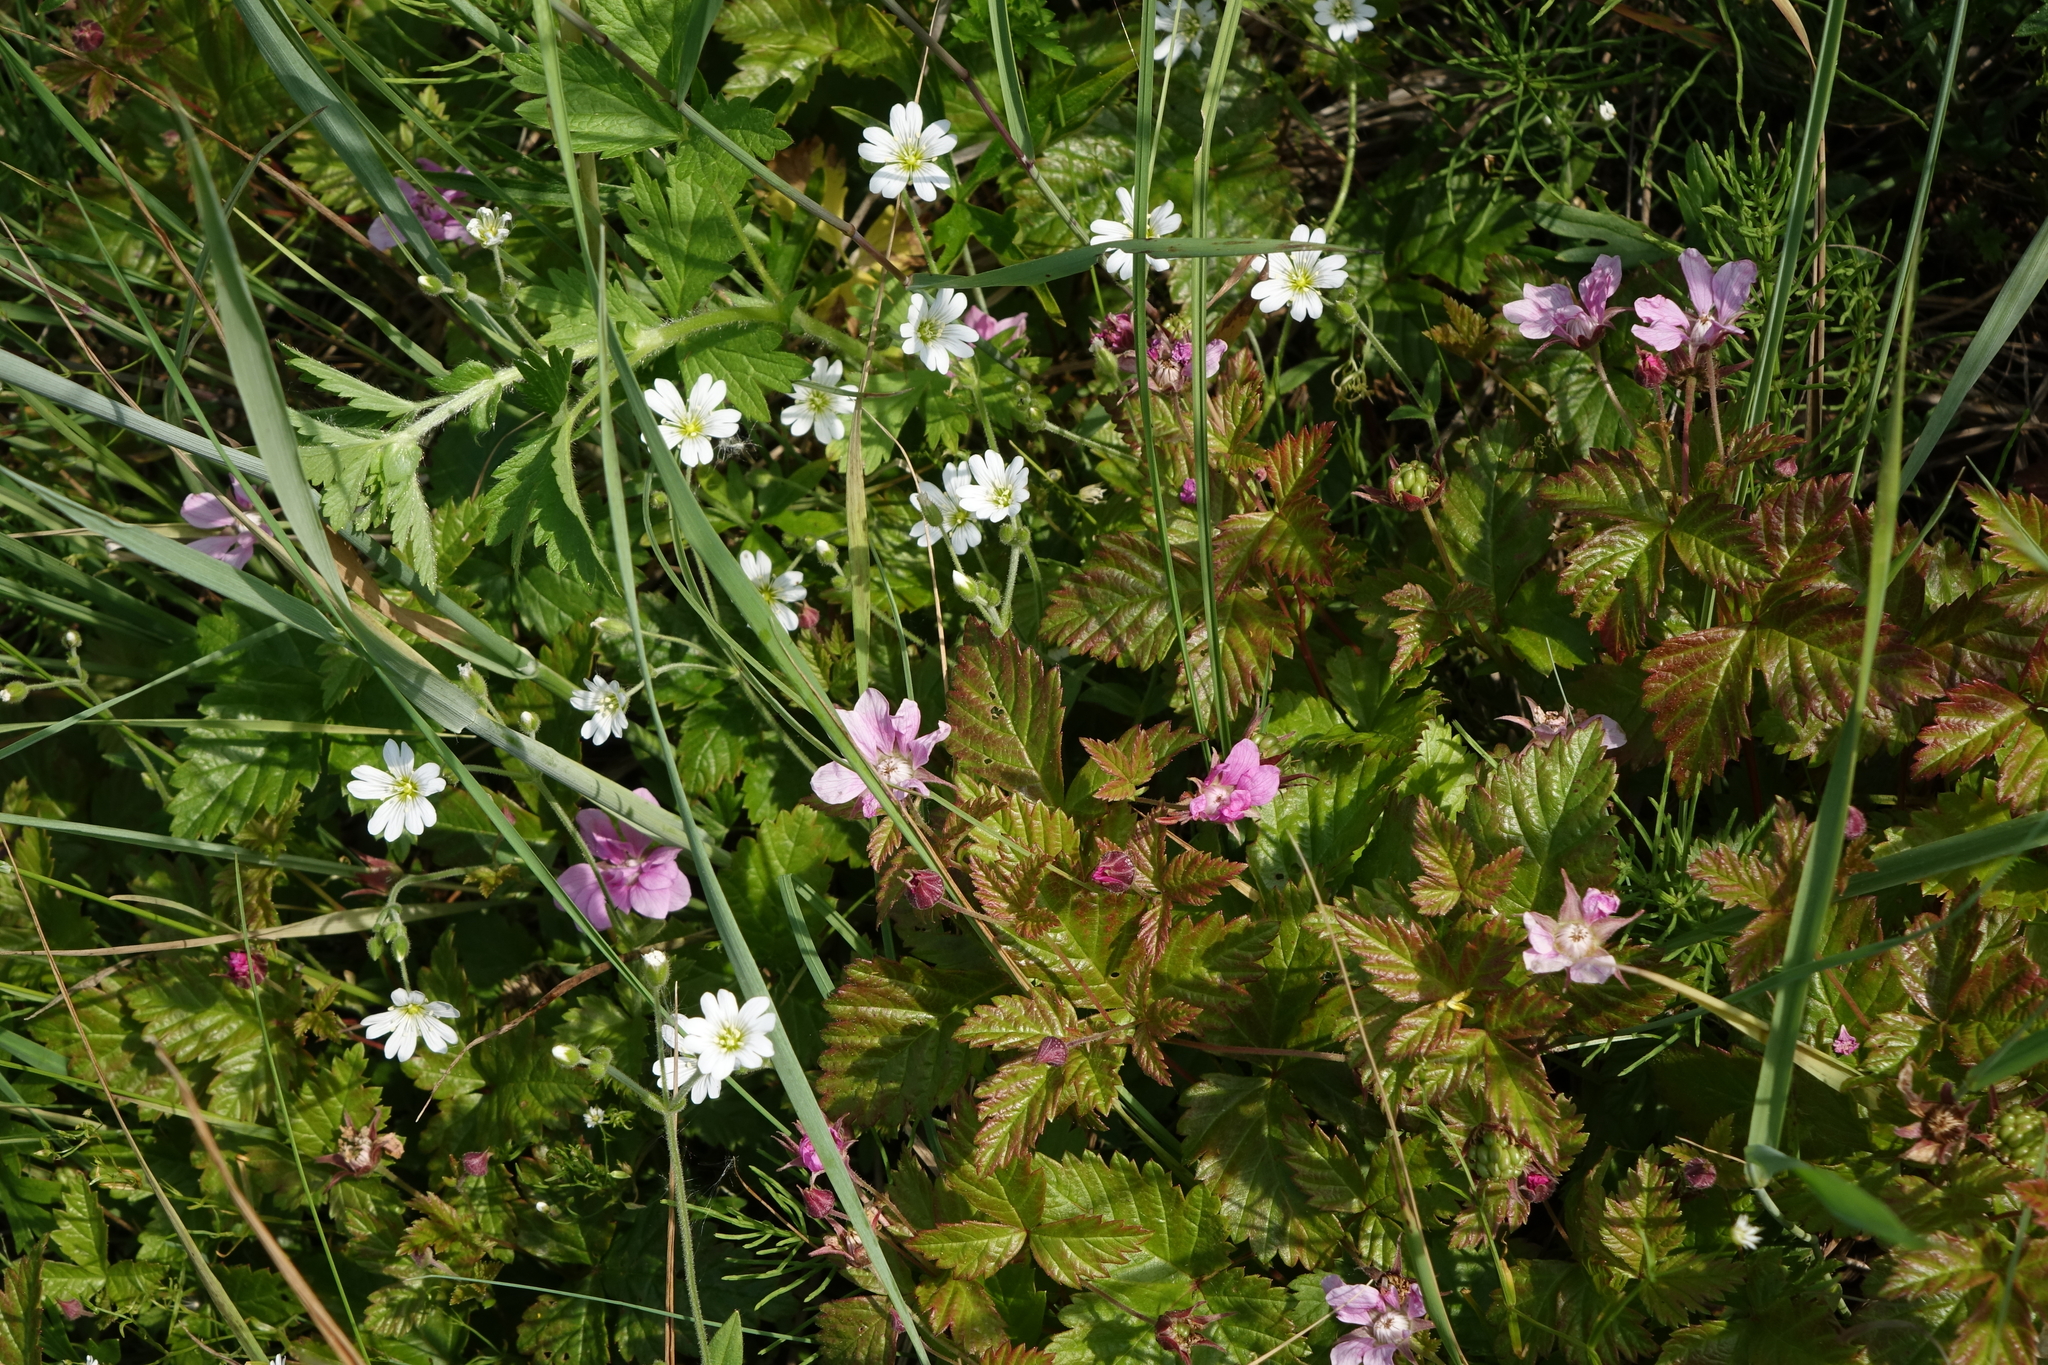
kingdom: Plantae
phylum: Tracheophyta
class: Magnoliopsida
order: Rosales
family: Rosaceae
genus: Rubus
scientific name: Rubus arcticus
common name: Arctic bramble
